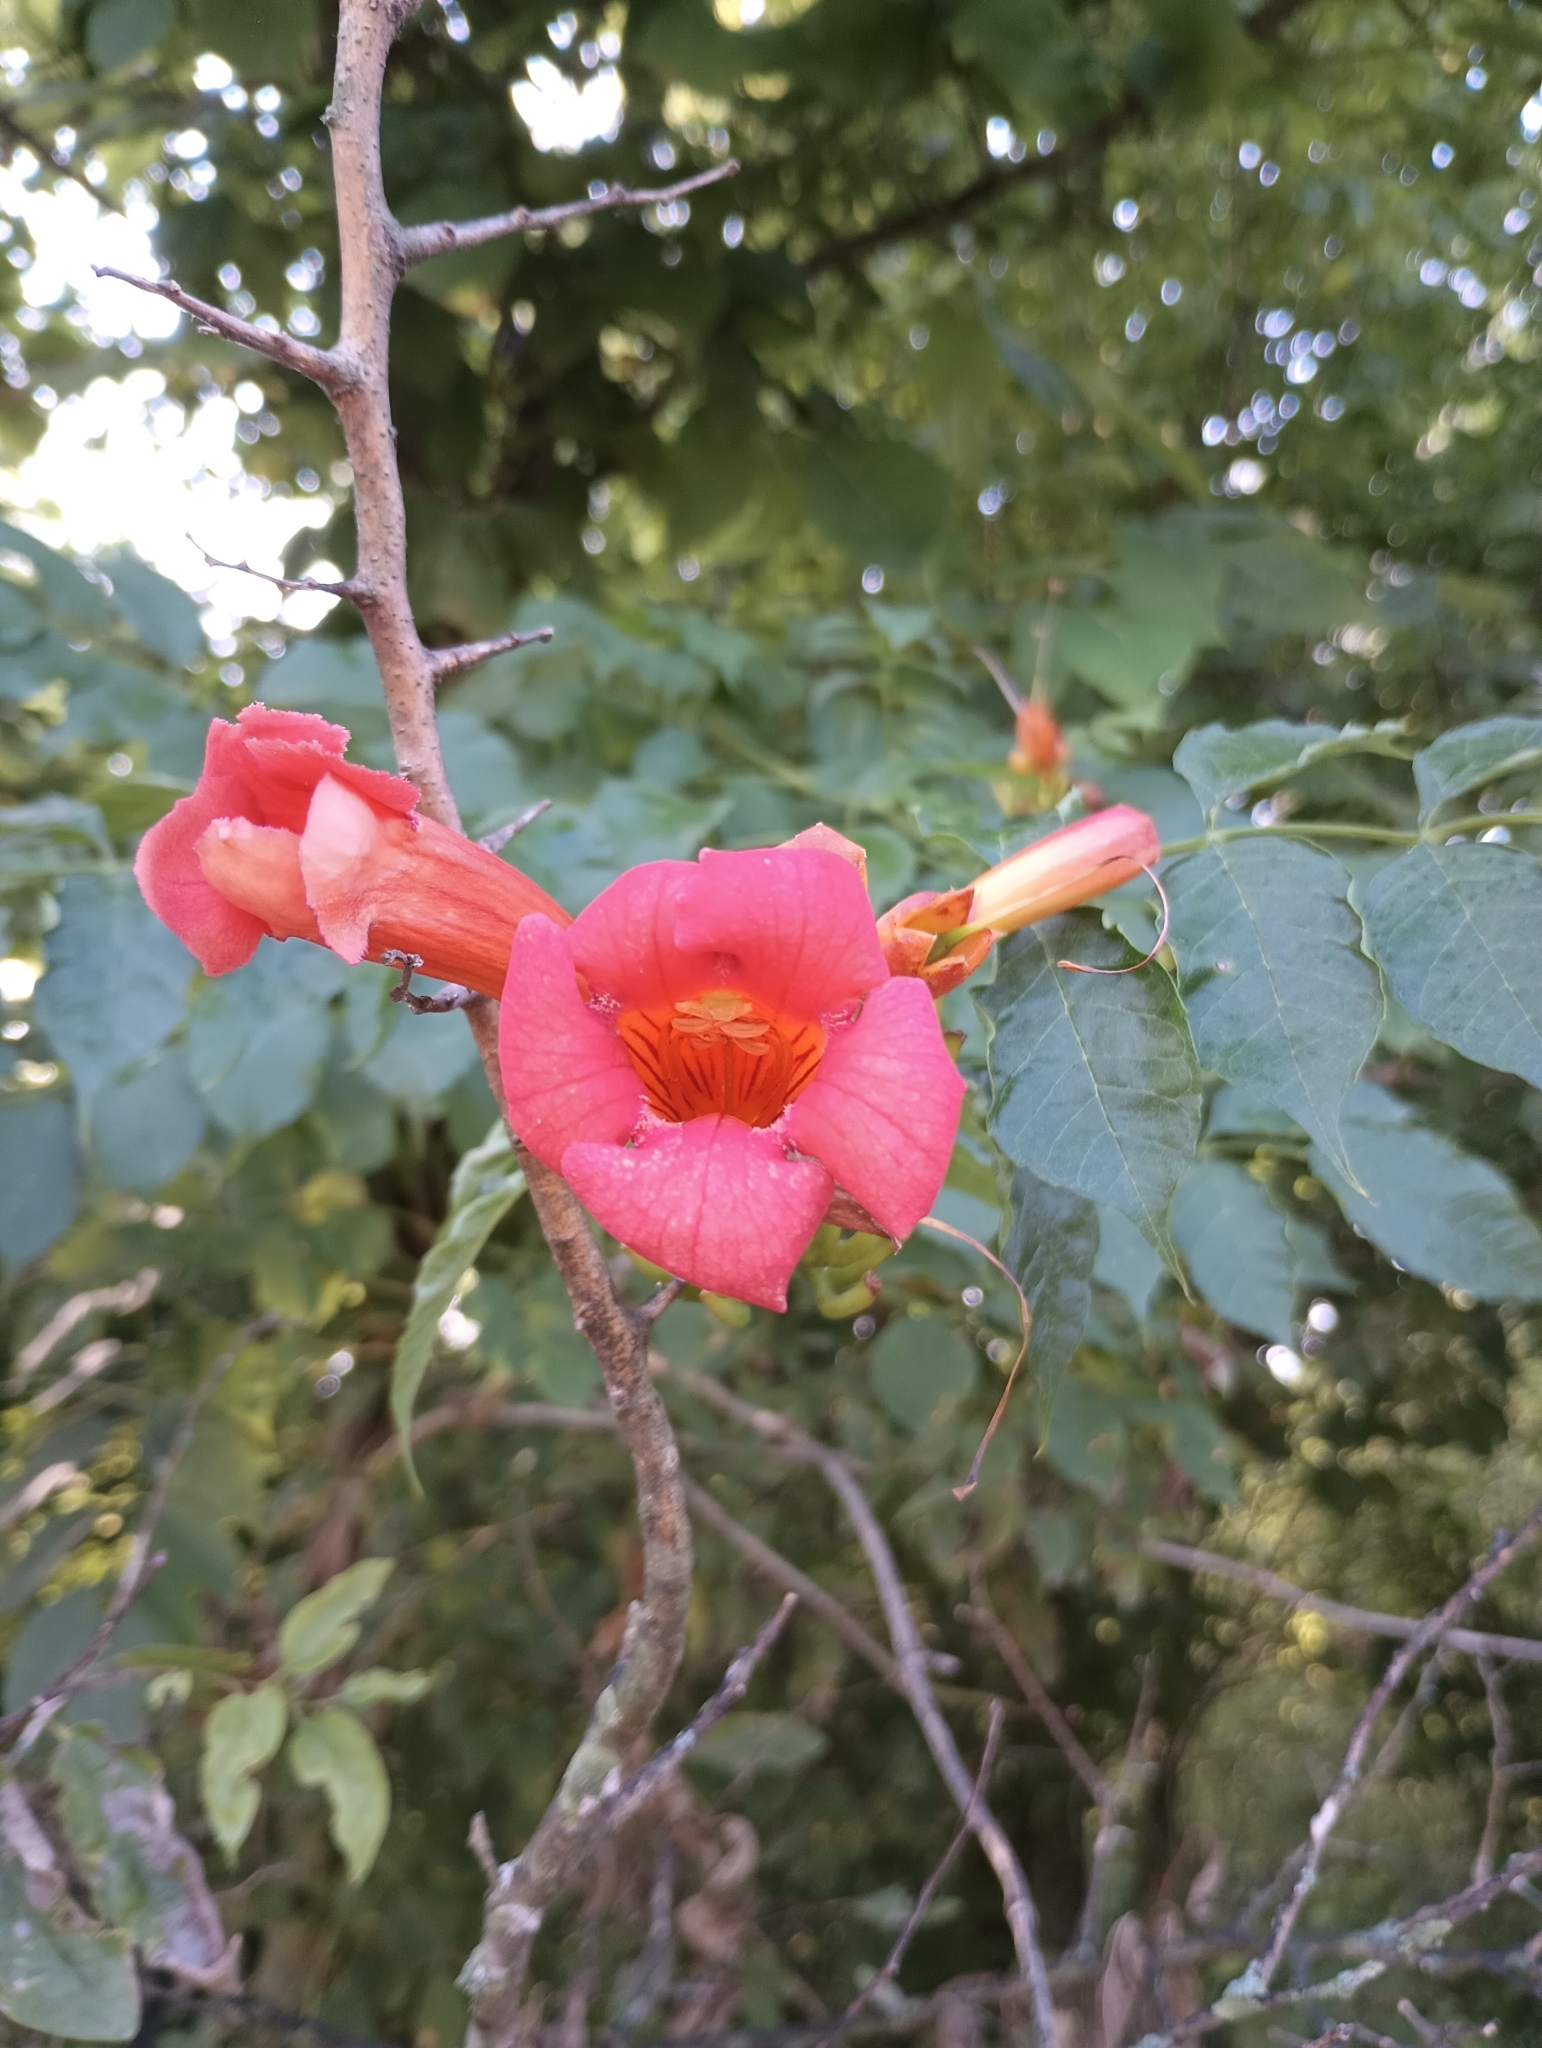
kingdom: Plantae
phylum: Tracheophyta
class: Magnoliopsida
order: Lamiales
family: Bignoniaceae
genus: Campsis
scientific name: Campsis radicans
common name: Trumpet-creeper
